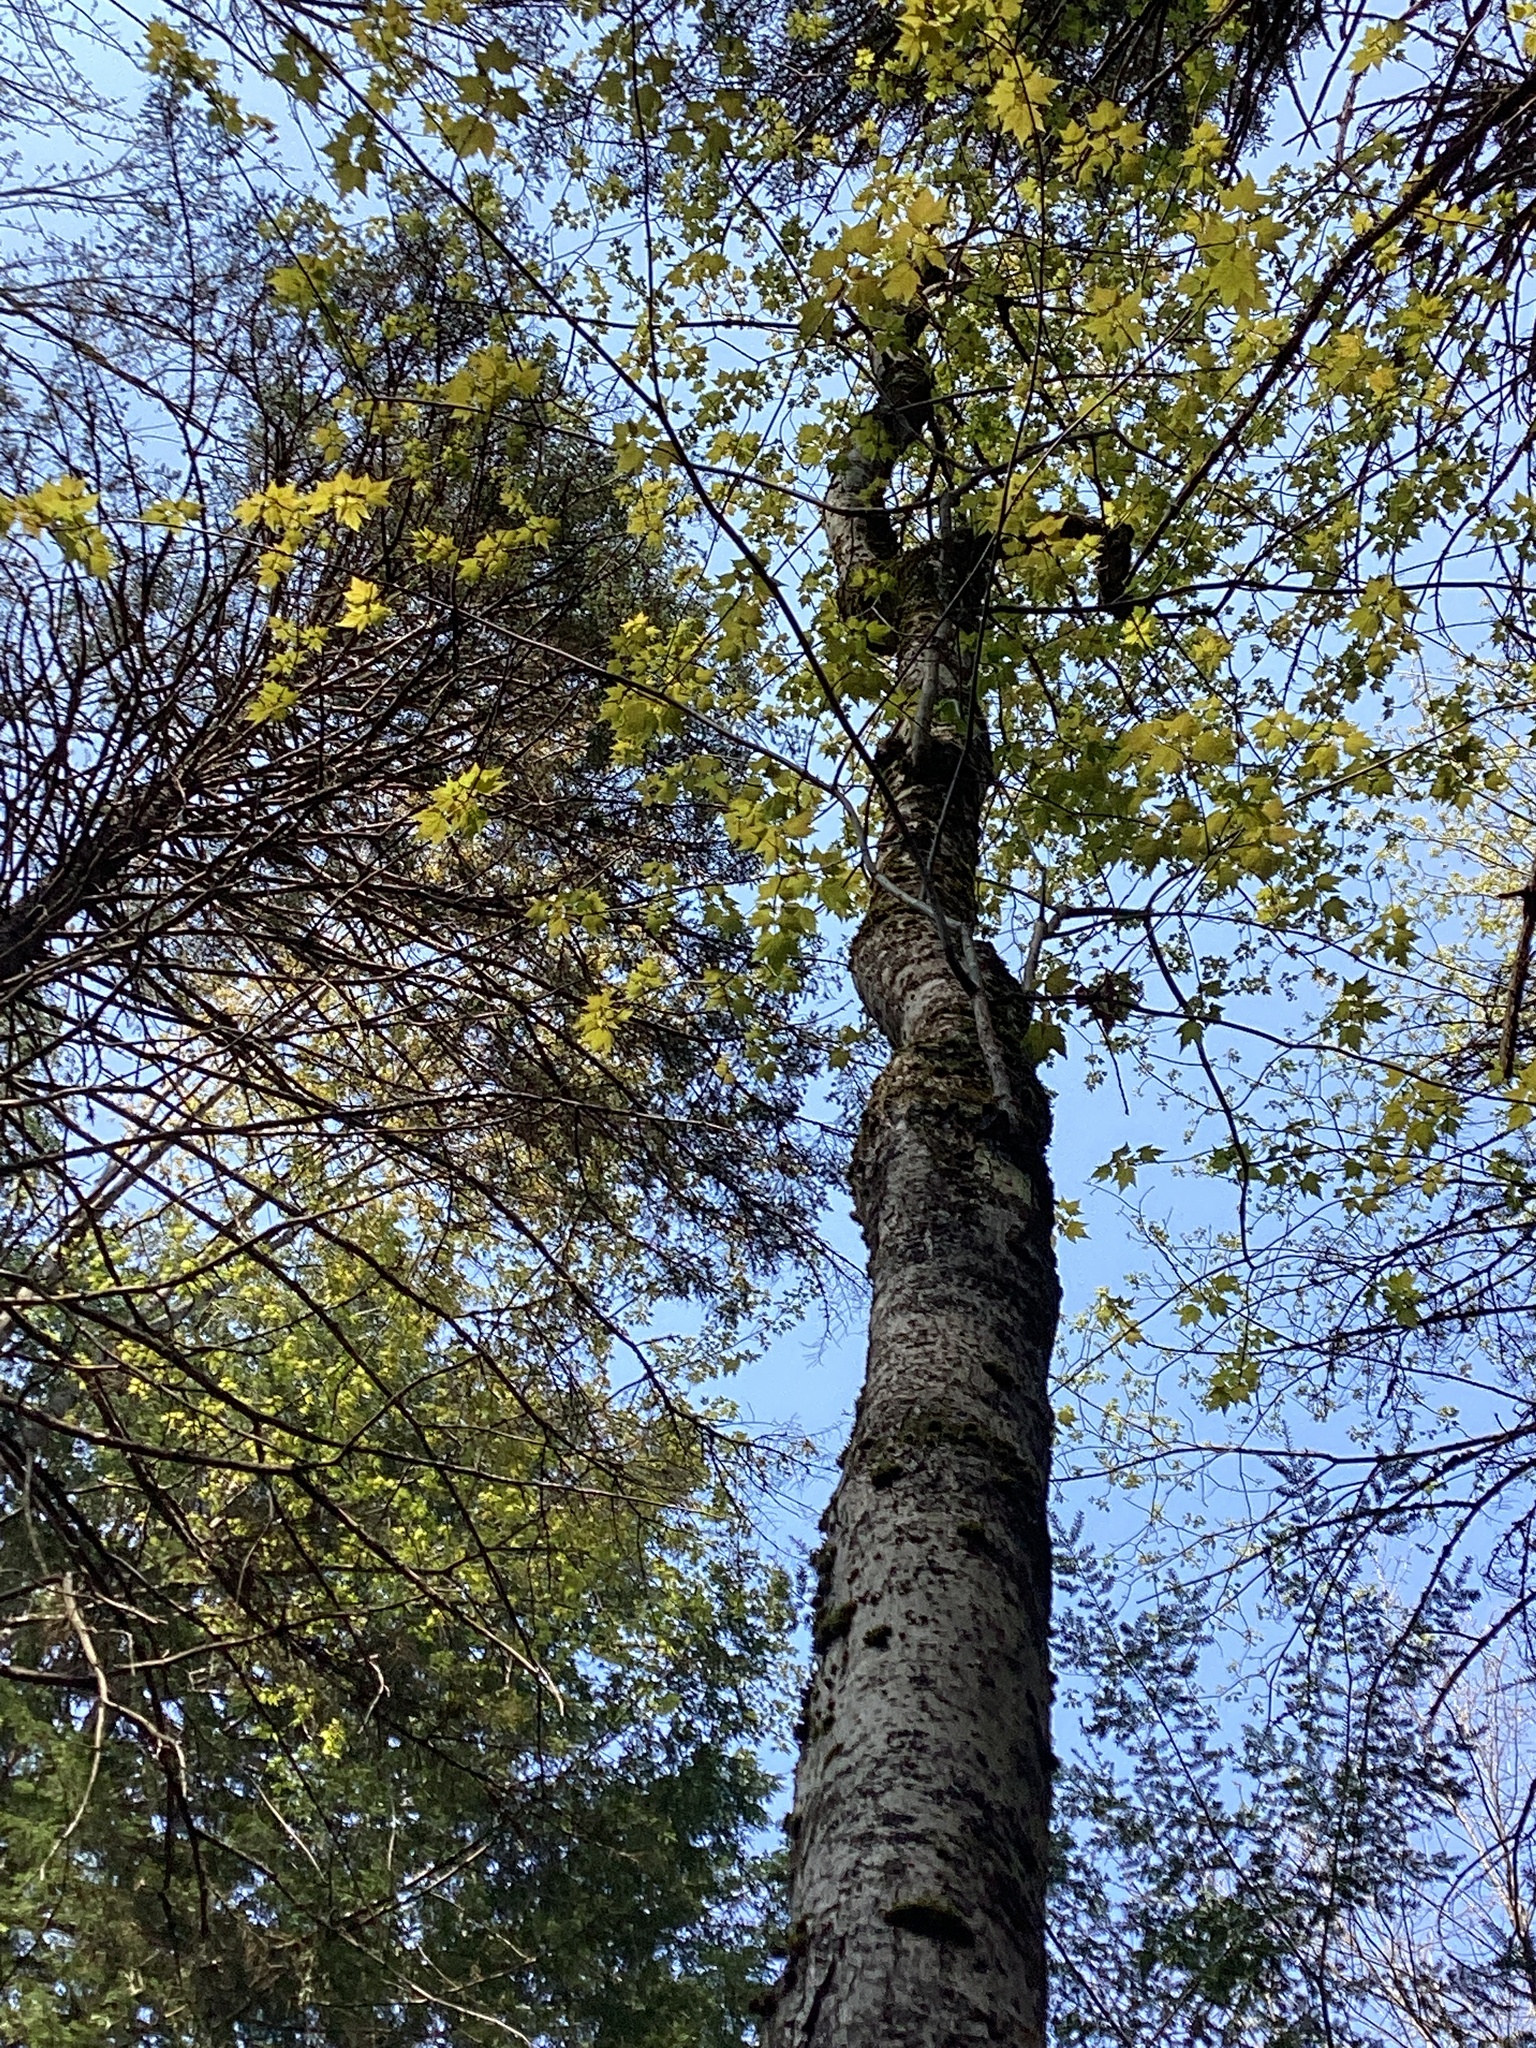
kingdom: Plantae
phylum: Tracheophyta
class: Magnoliopsida
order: Sapindales
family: Sapindaceae
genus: Acer
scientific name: Acer rubrum
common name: Red maple
